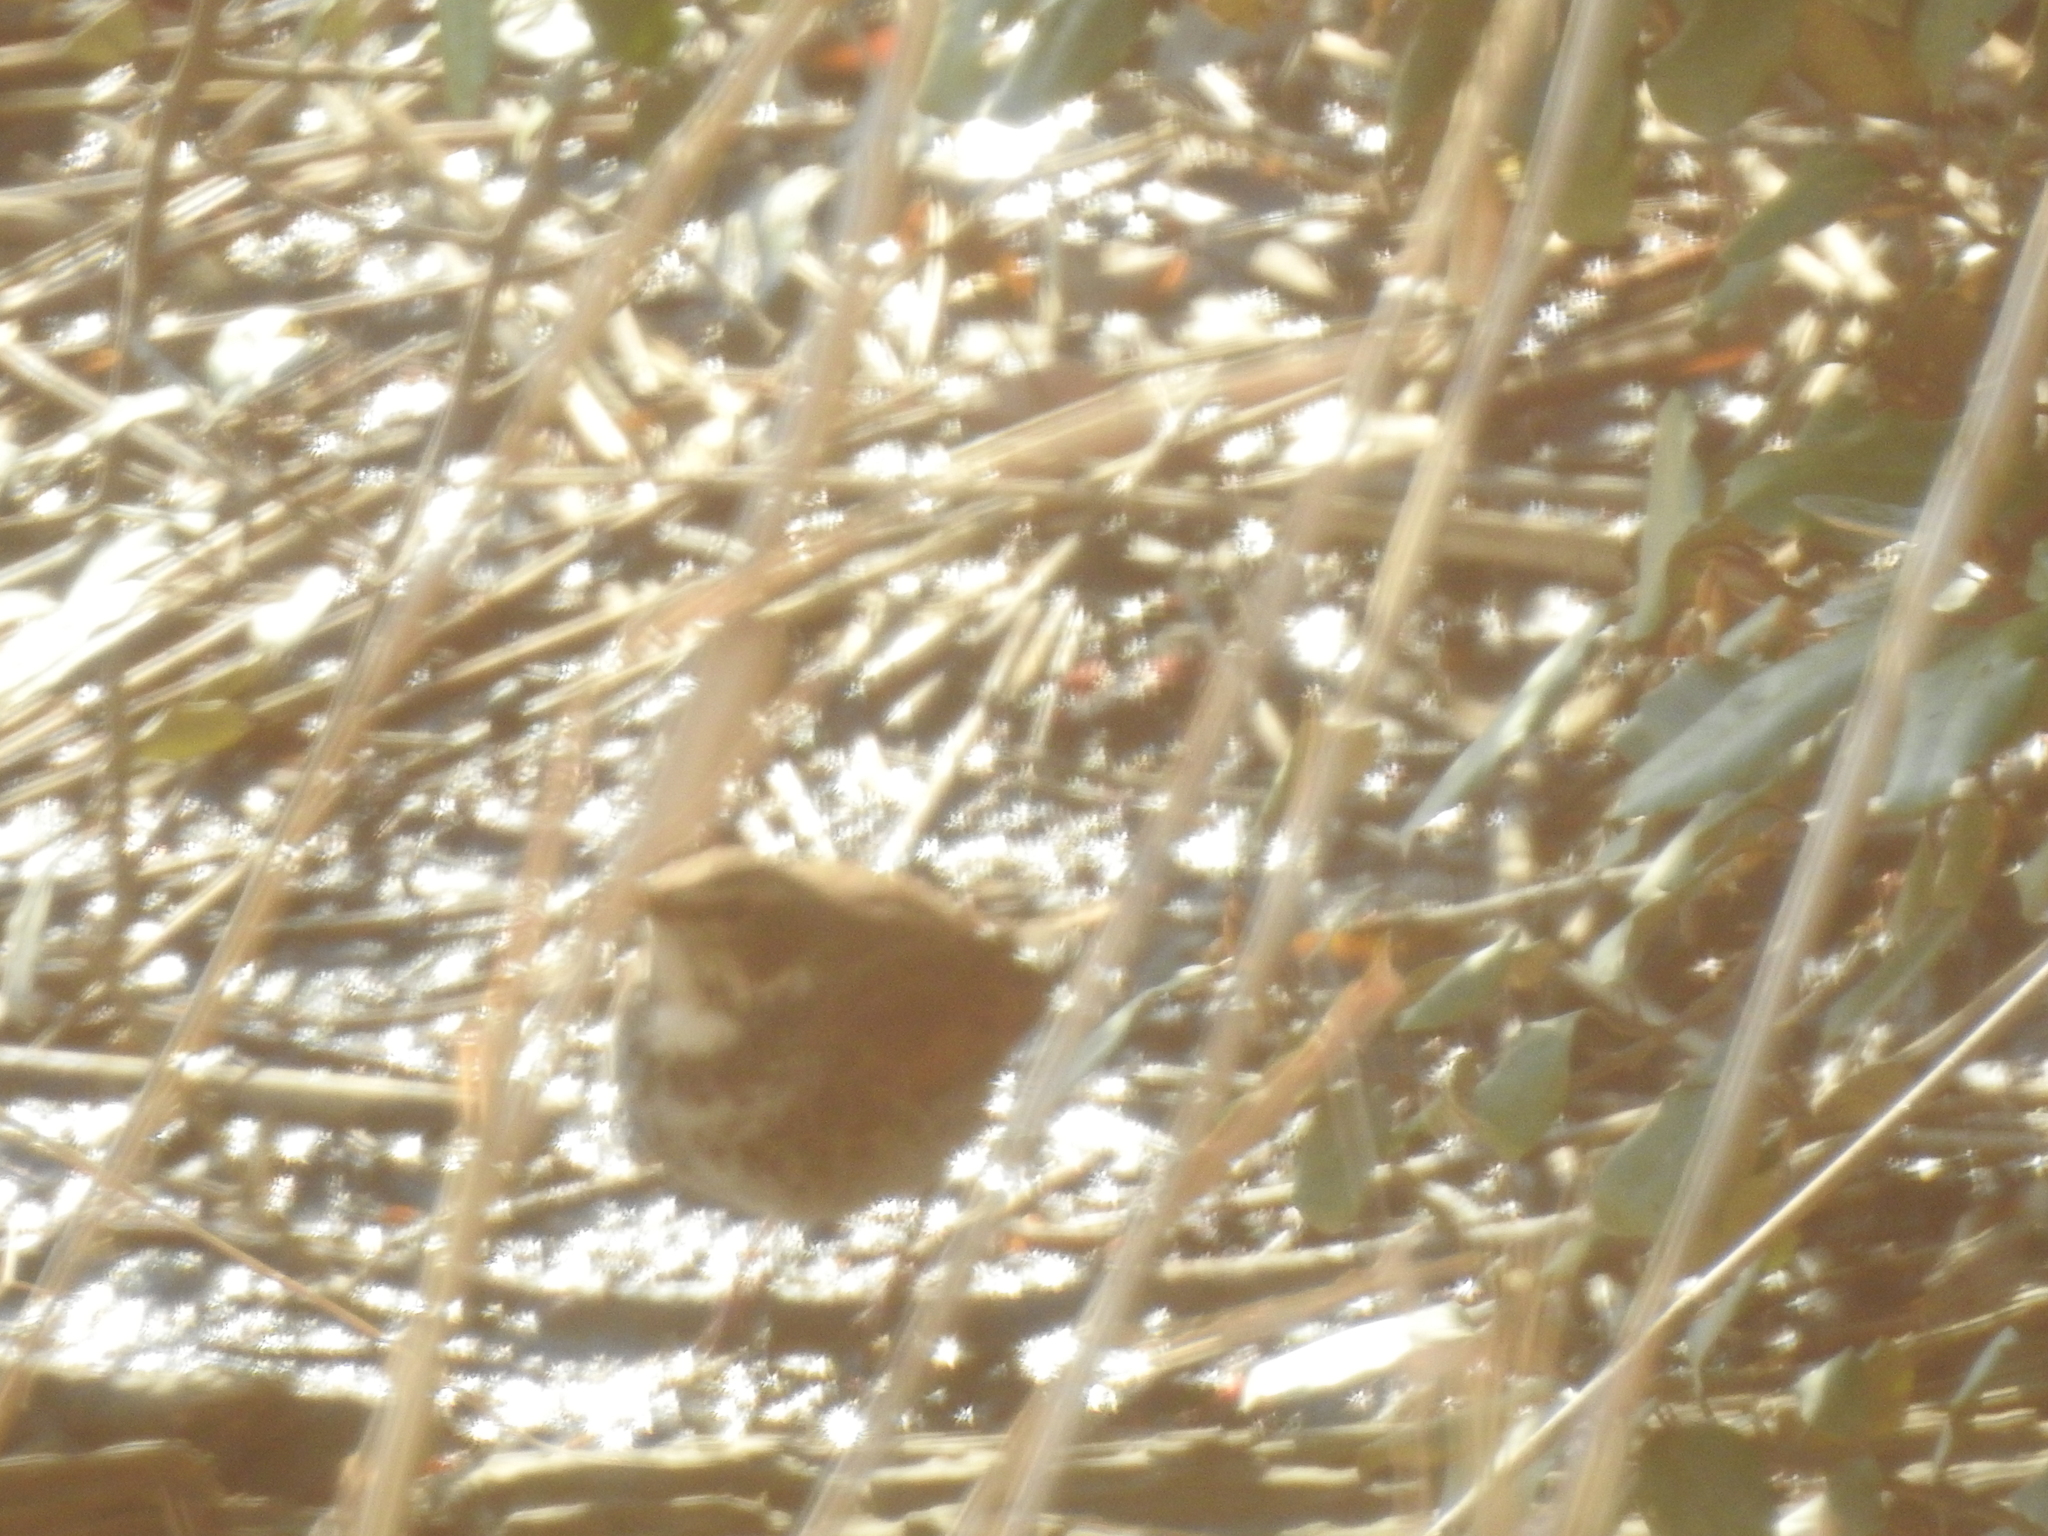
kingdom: Animalia
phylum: Chordata
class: Aves
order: Passeriformes
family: Turdidae
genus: Turdus
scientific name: Turdus eunomus
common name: Dusky thrush
